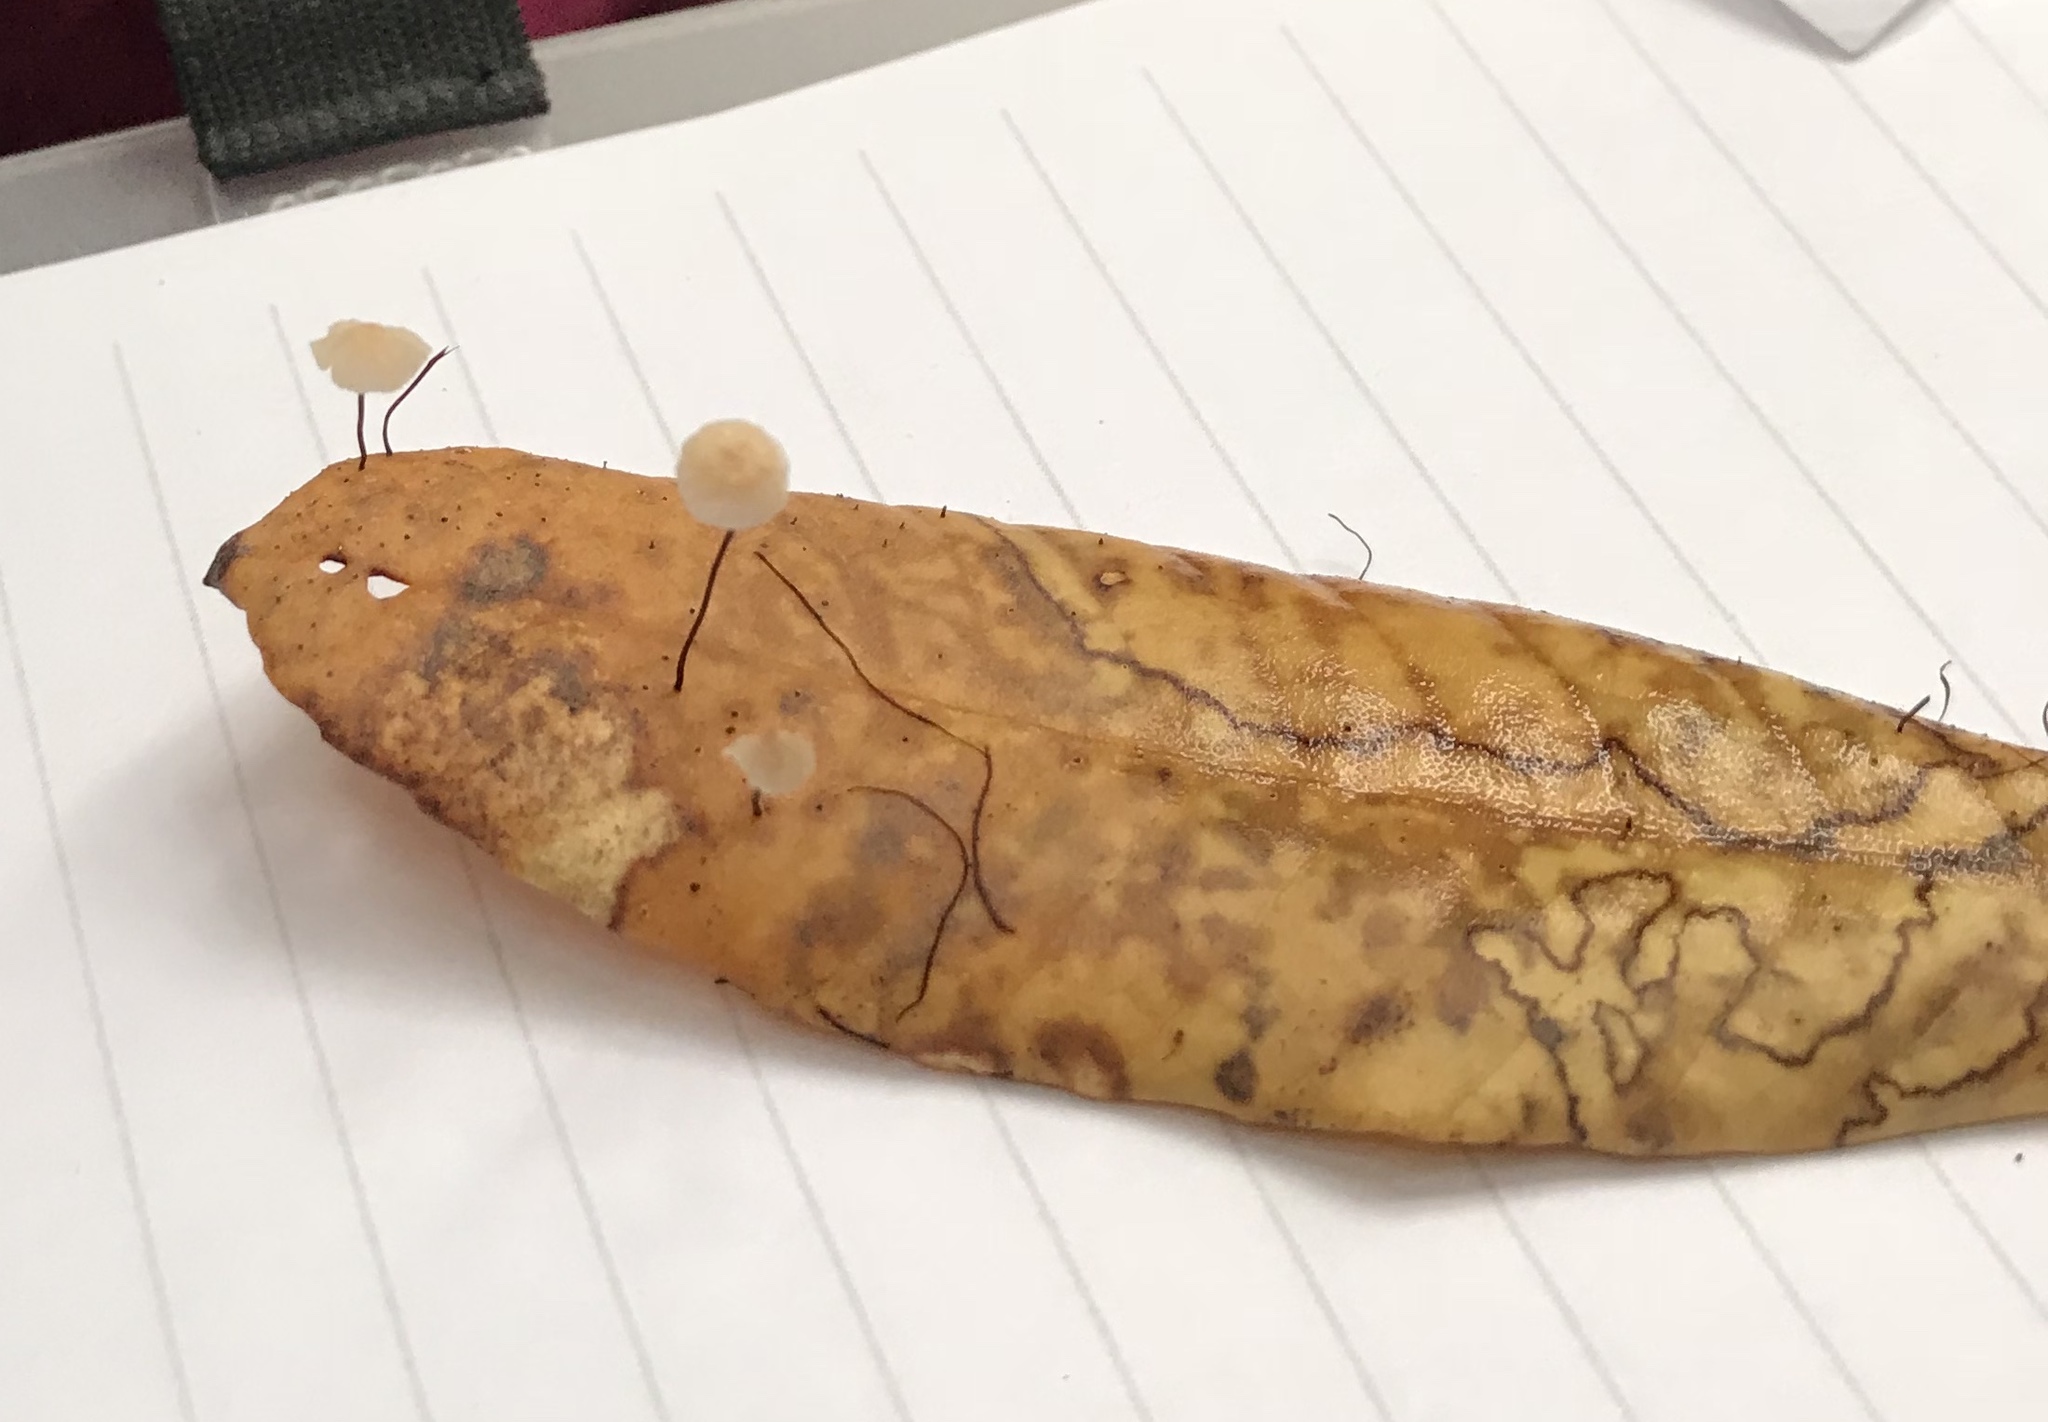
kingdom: Fungi
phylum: Basidiomycota
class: Agaricomycetes
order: Agaricales
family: Omphalotaceae
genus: Collybiopsis
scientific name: Collybiopsis quercophila
